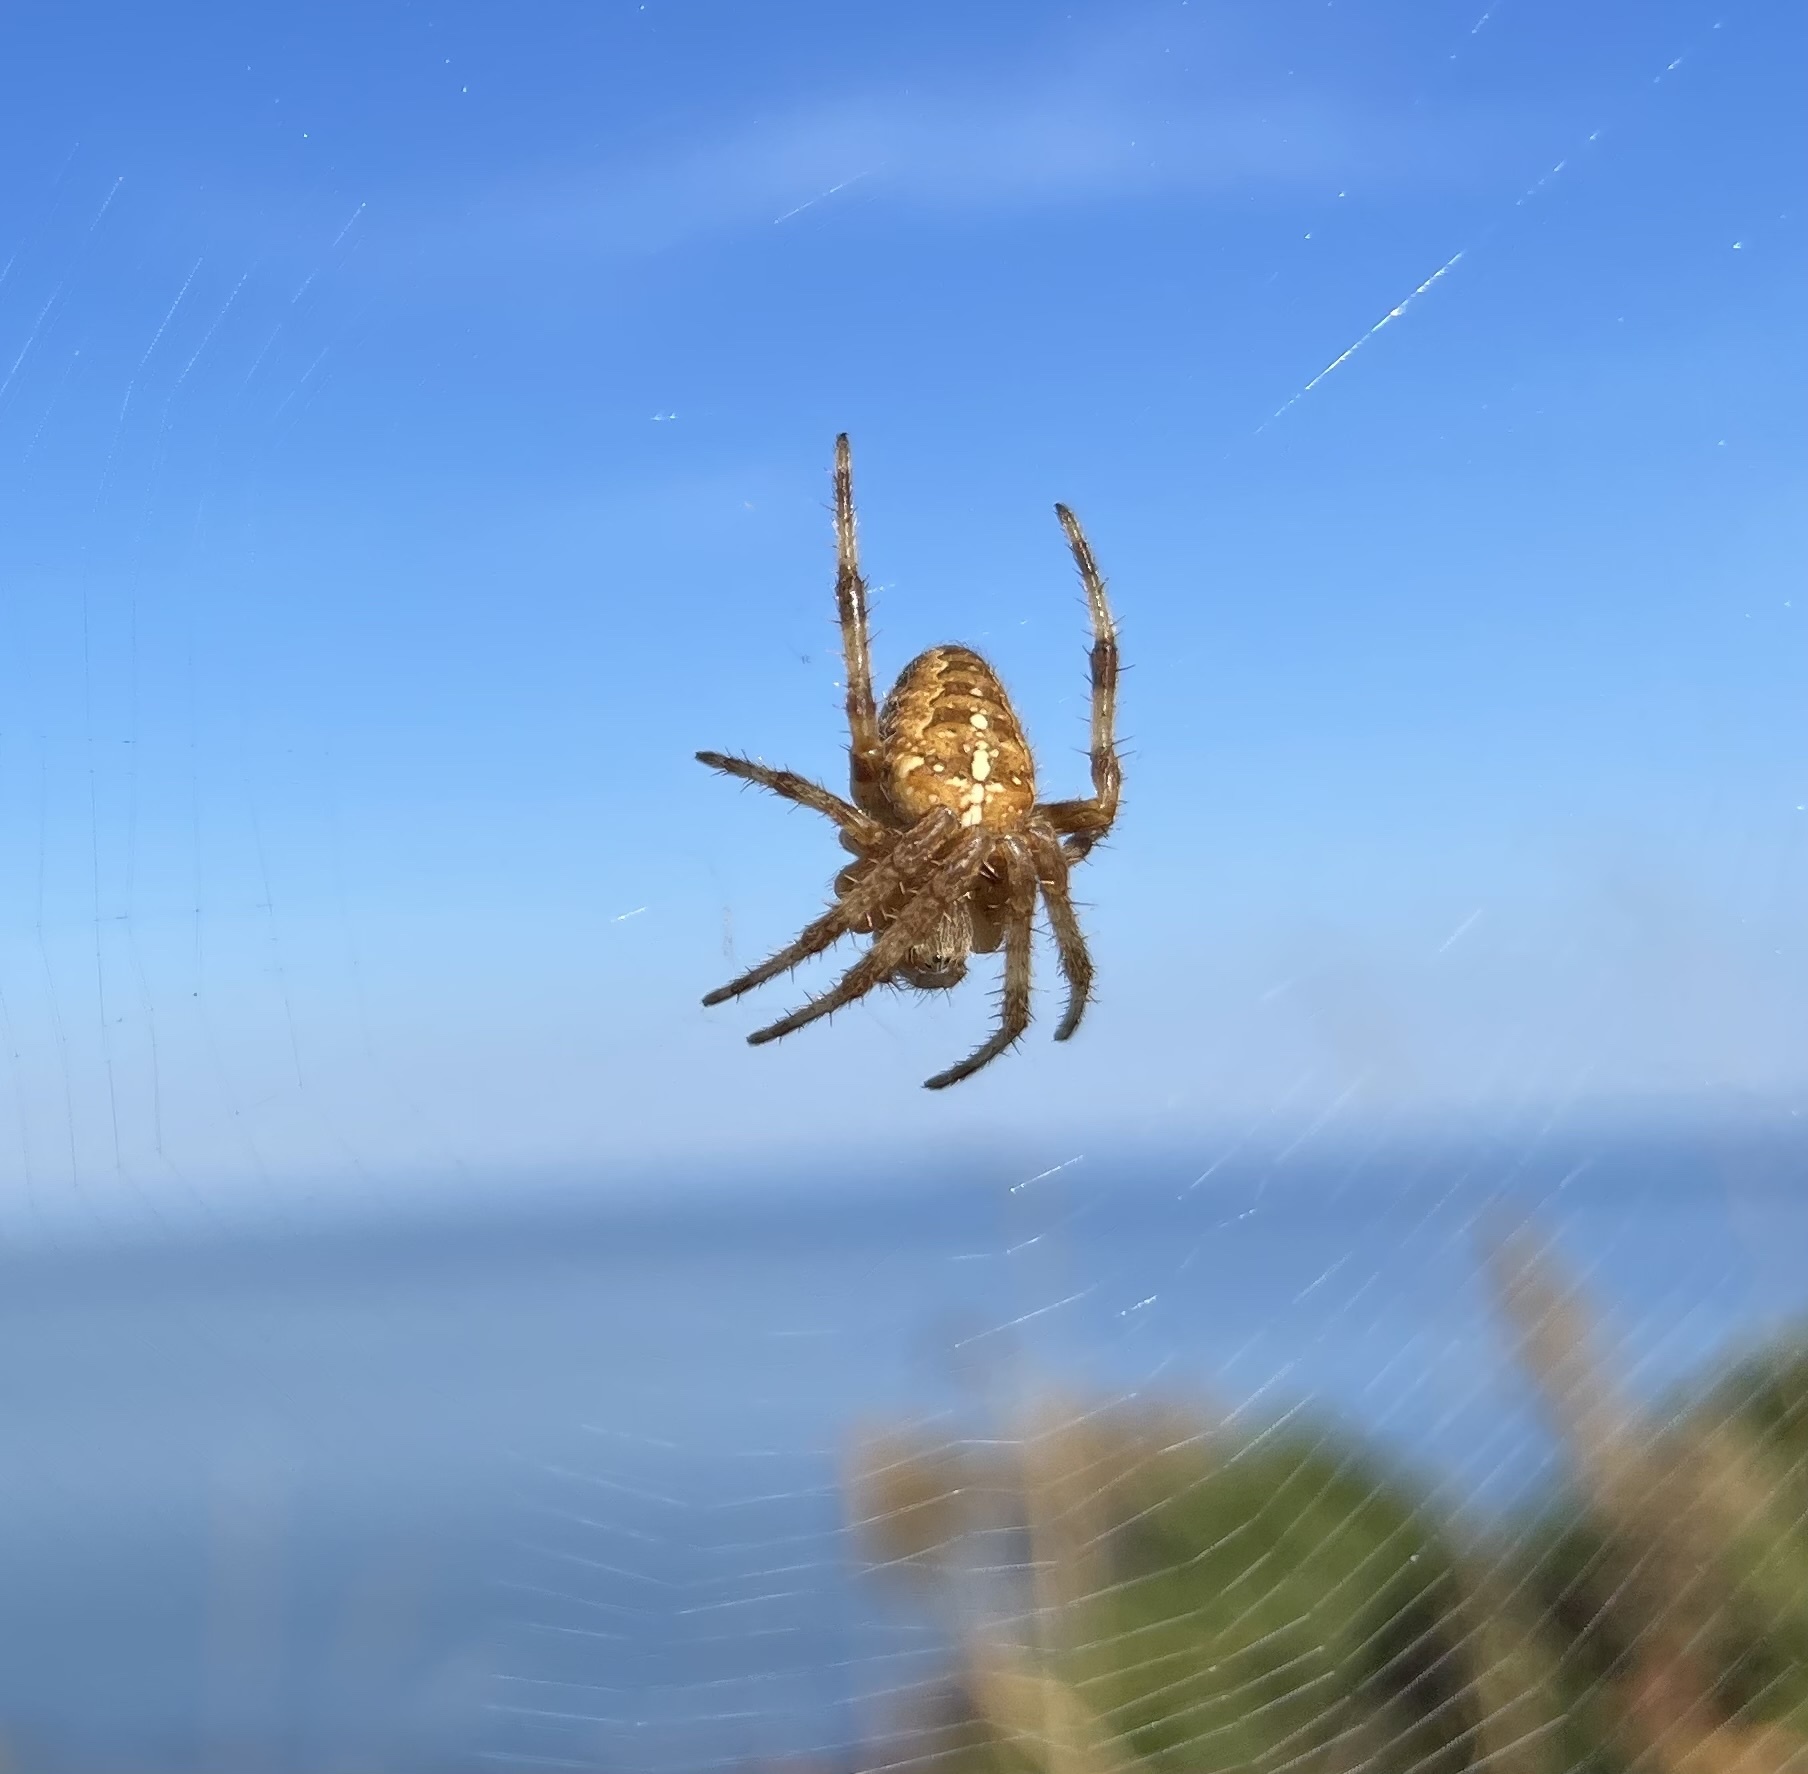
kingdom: Animalia
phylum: Arthropoda
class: Arachnida
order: Araneae
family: Araneidae
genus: Araneus
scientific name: Araneus diadematus
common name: Cross orbweaver
